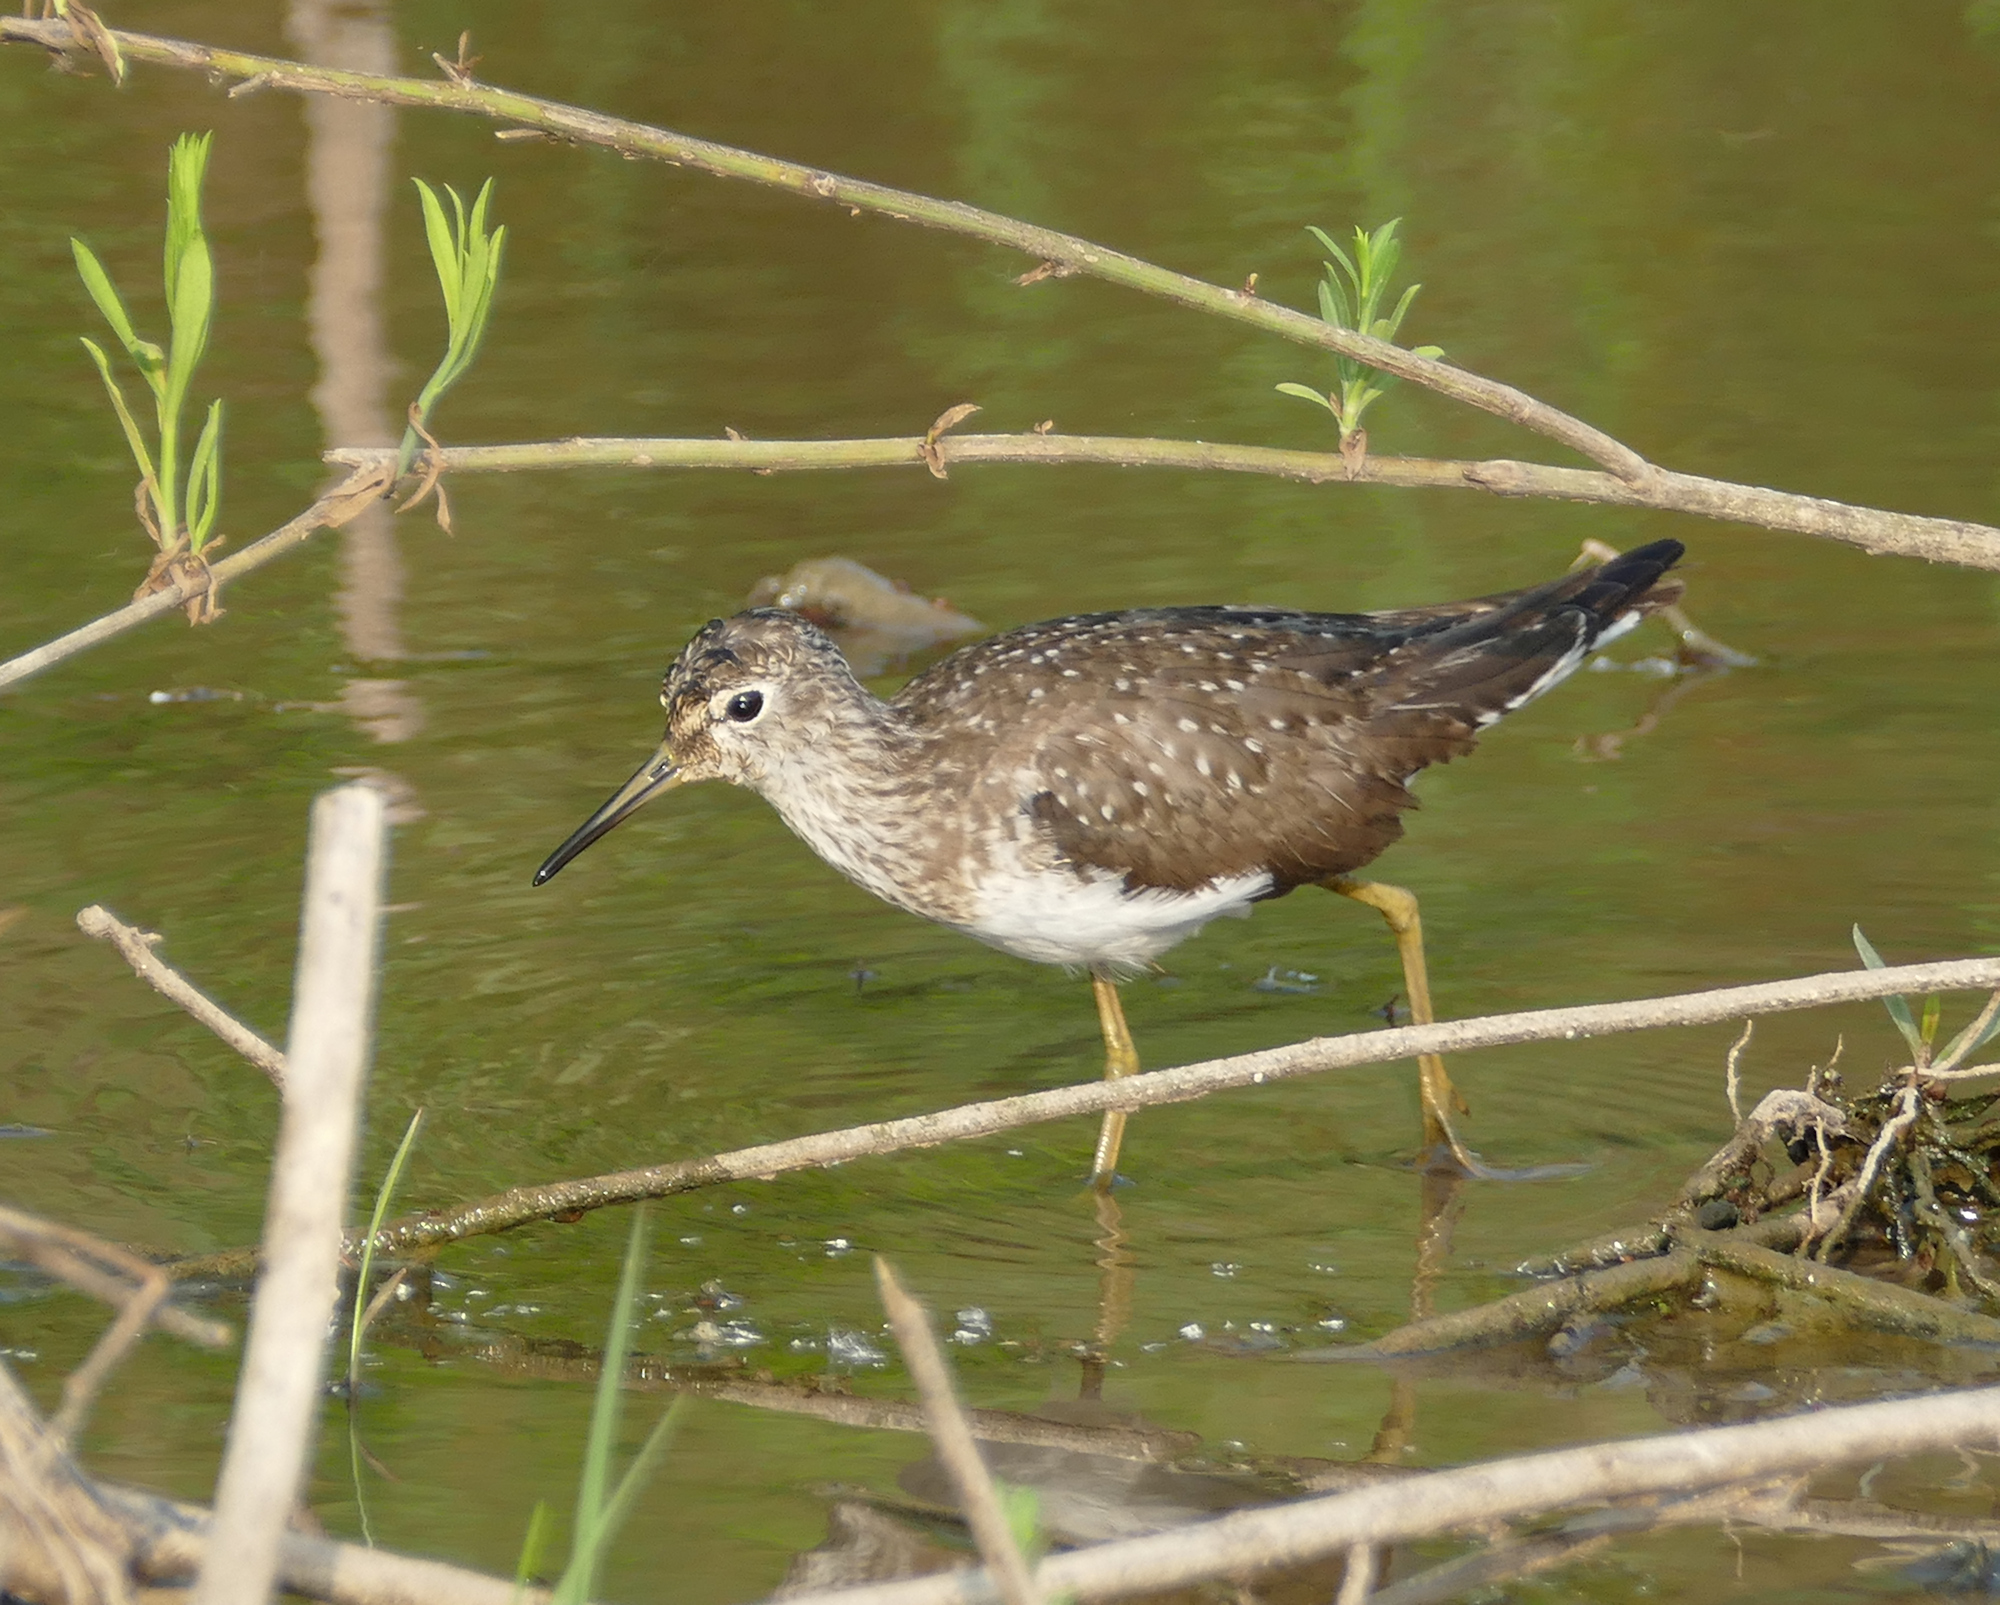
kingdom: Animalia
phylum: Chordata
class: Aves
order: Charadriiformes
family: Scolopacidae
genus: Tringa
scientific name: Tringa solitaria
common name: Solitary sandpiper
